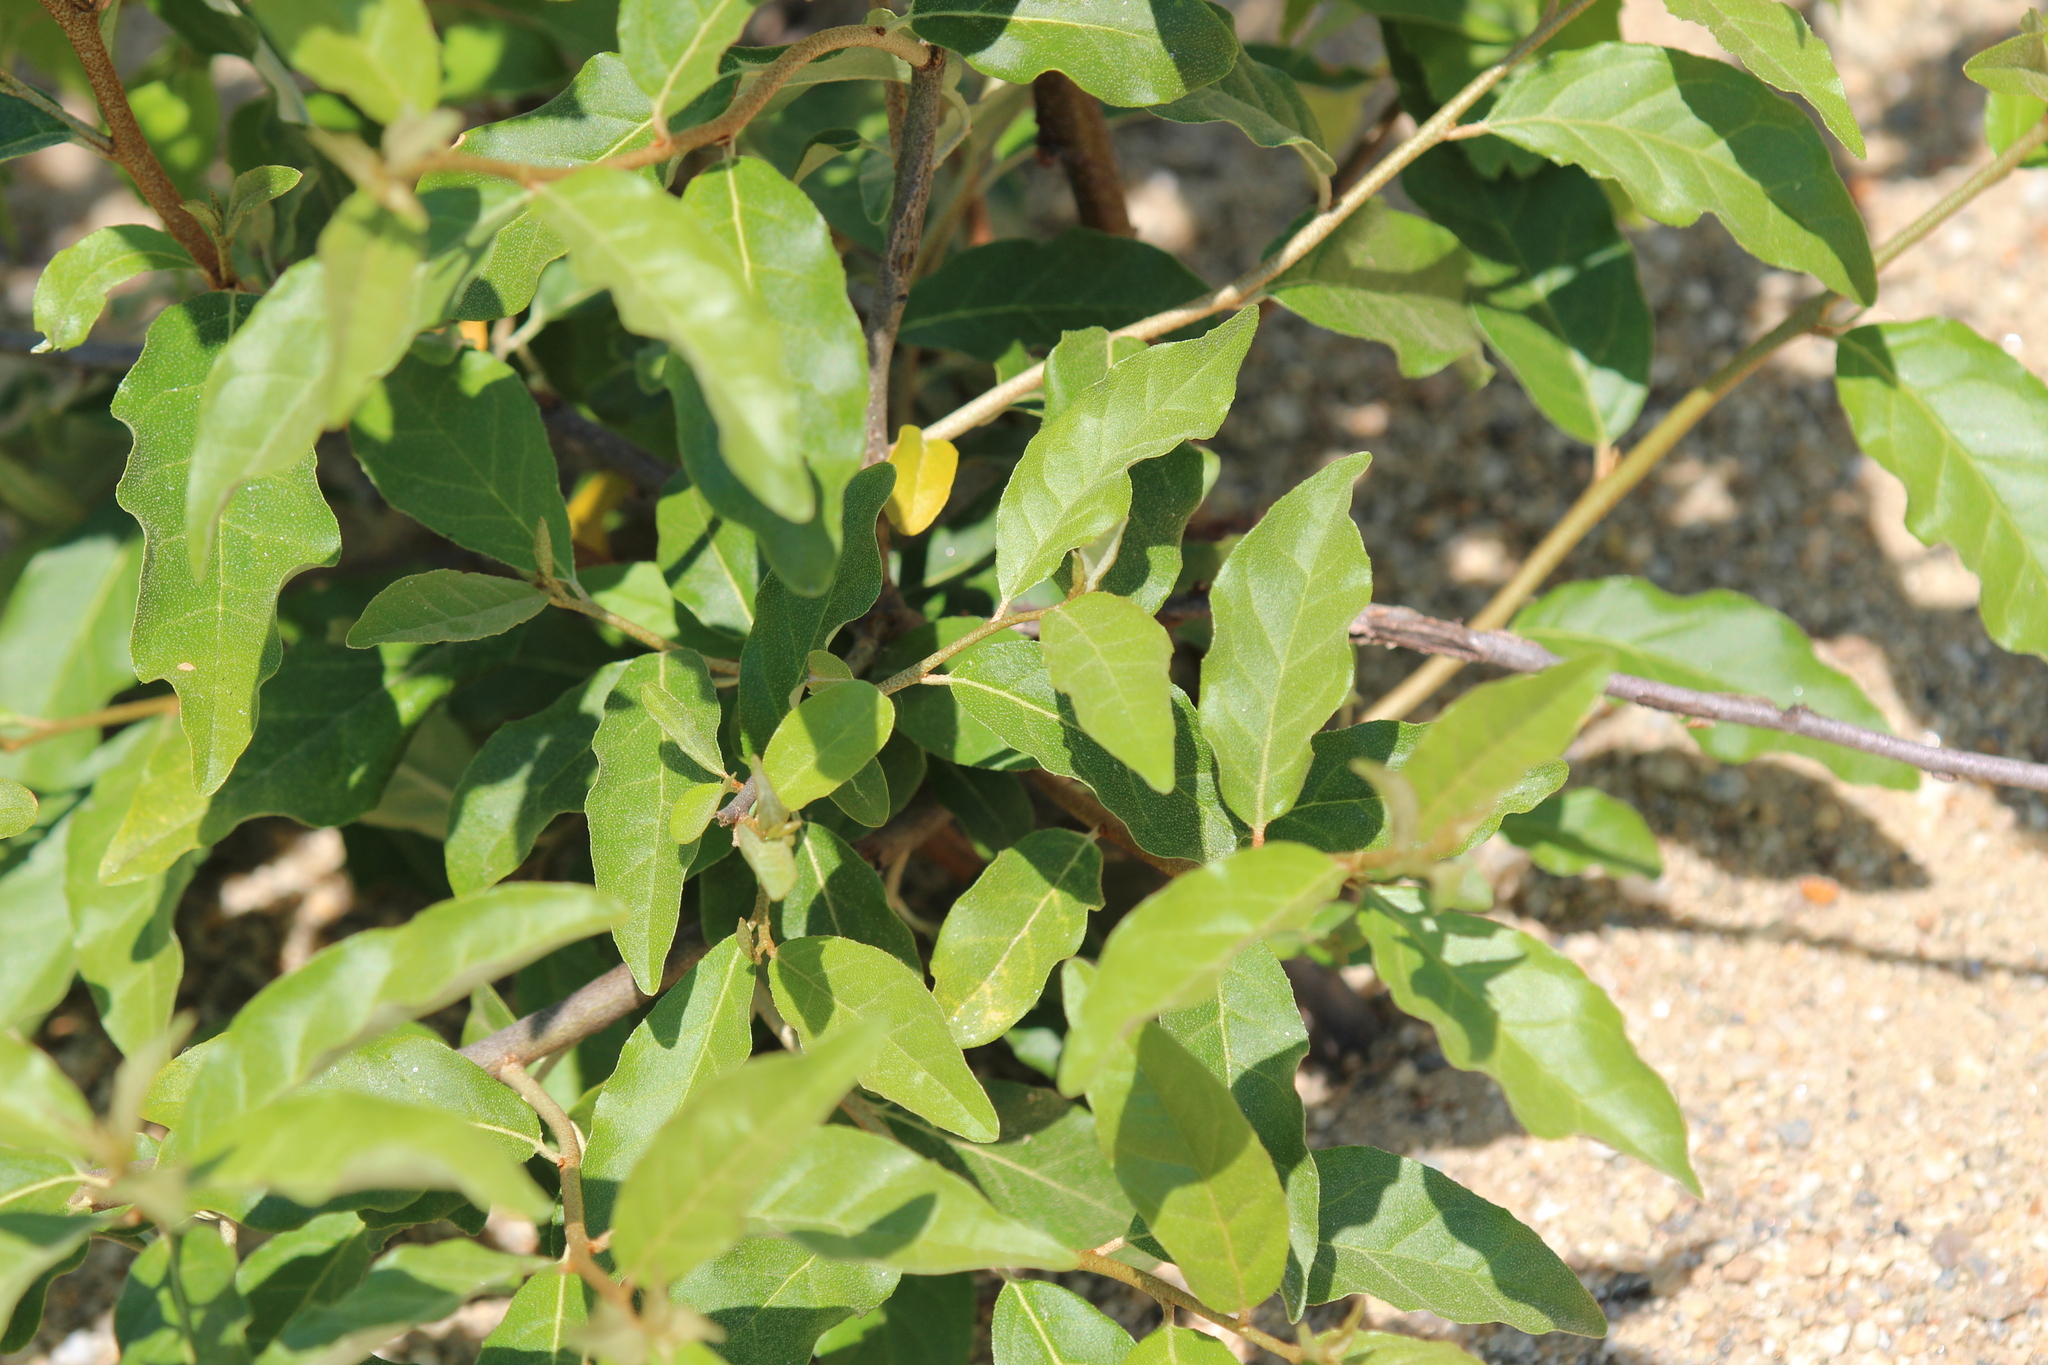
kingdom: Plantae
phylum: Tracheophyta
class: Magnoliopsida
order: Rosales
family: Elaeagnaceae
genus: Elaeagnus
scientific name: Elaeagnus umbellata
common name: Autumn olive
